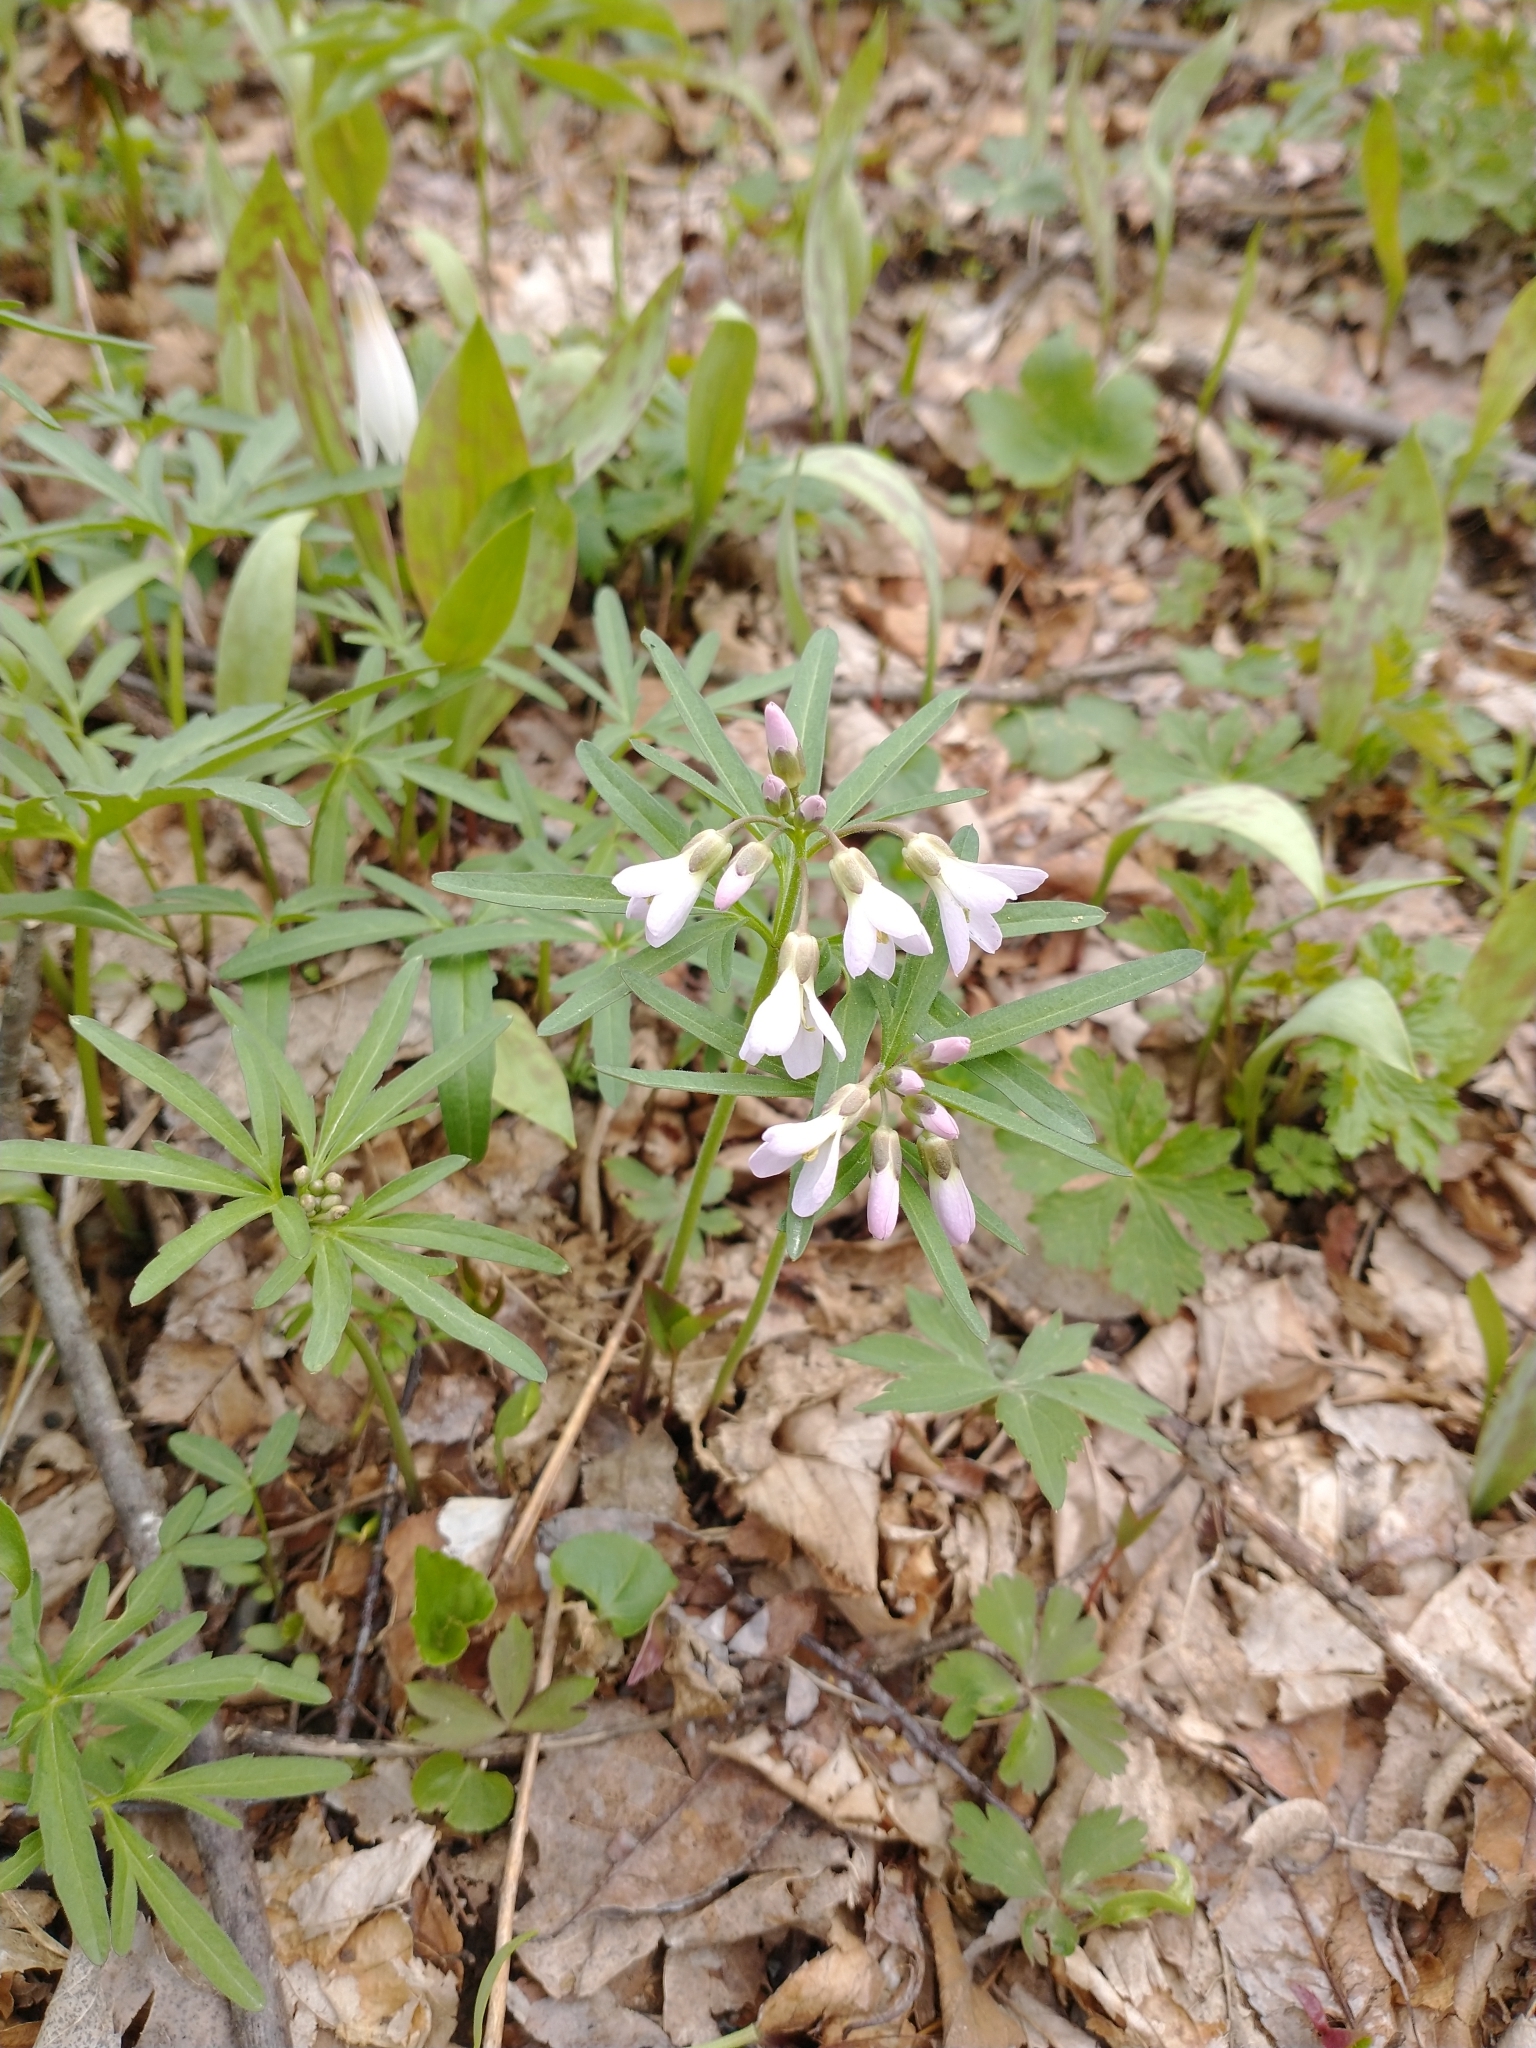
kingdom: Plantae
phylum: Tracheophyta
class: Magnoliopsida
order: Brassicales
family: Brassicaceae
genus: Cardamine
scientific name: Cardamine concatenata
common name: Cut-leaf toothcup
